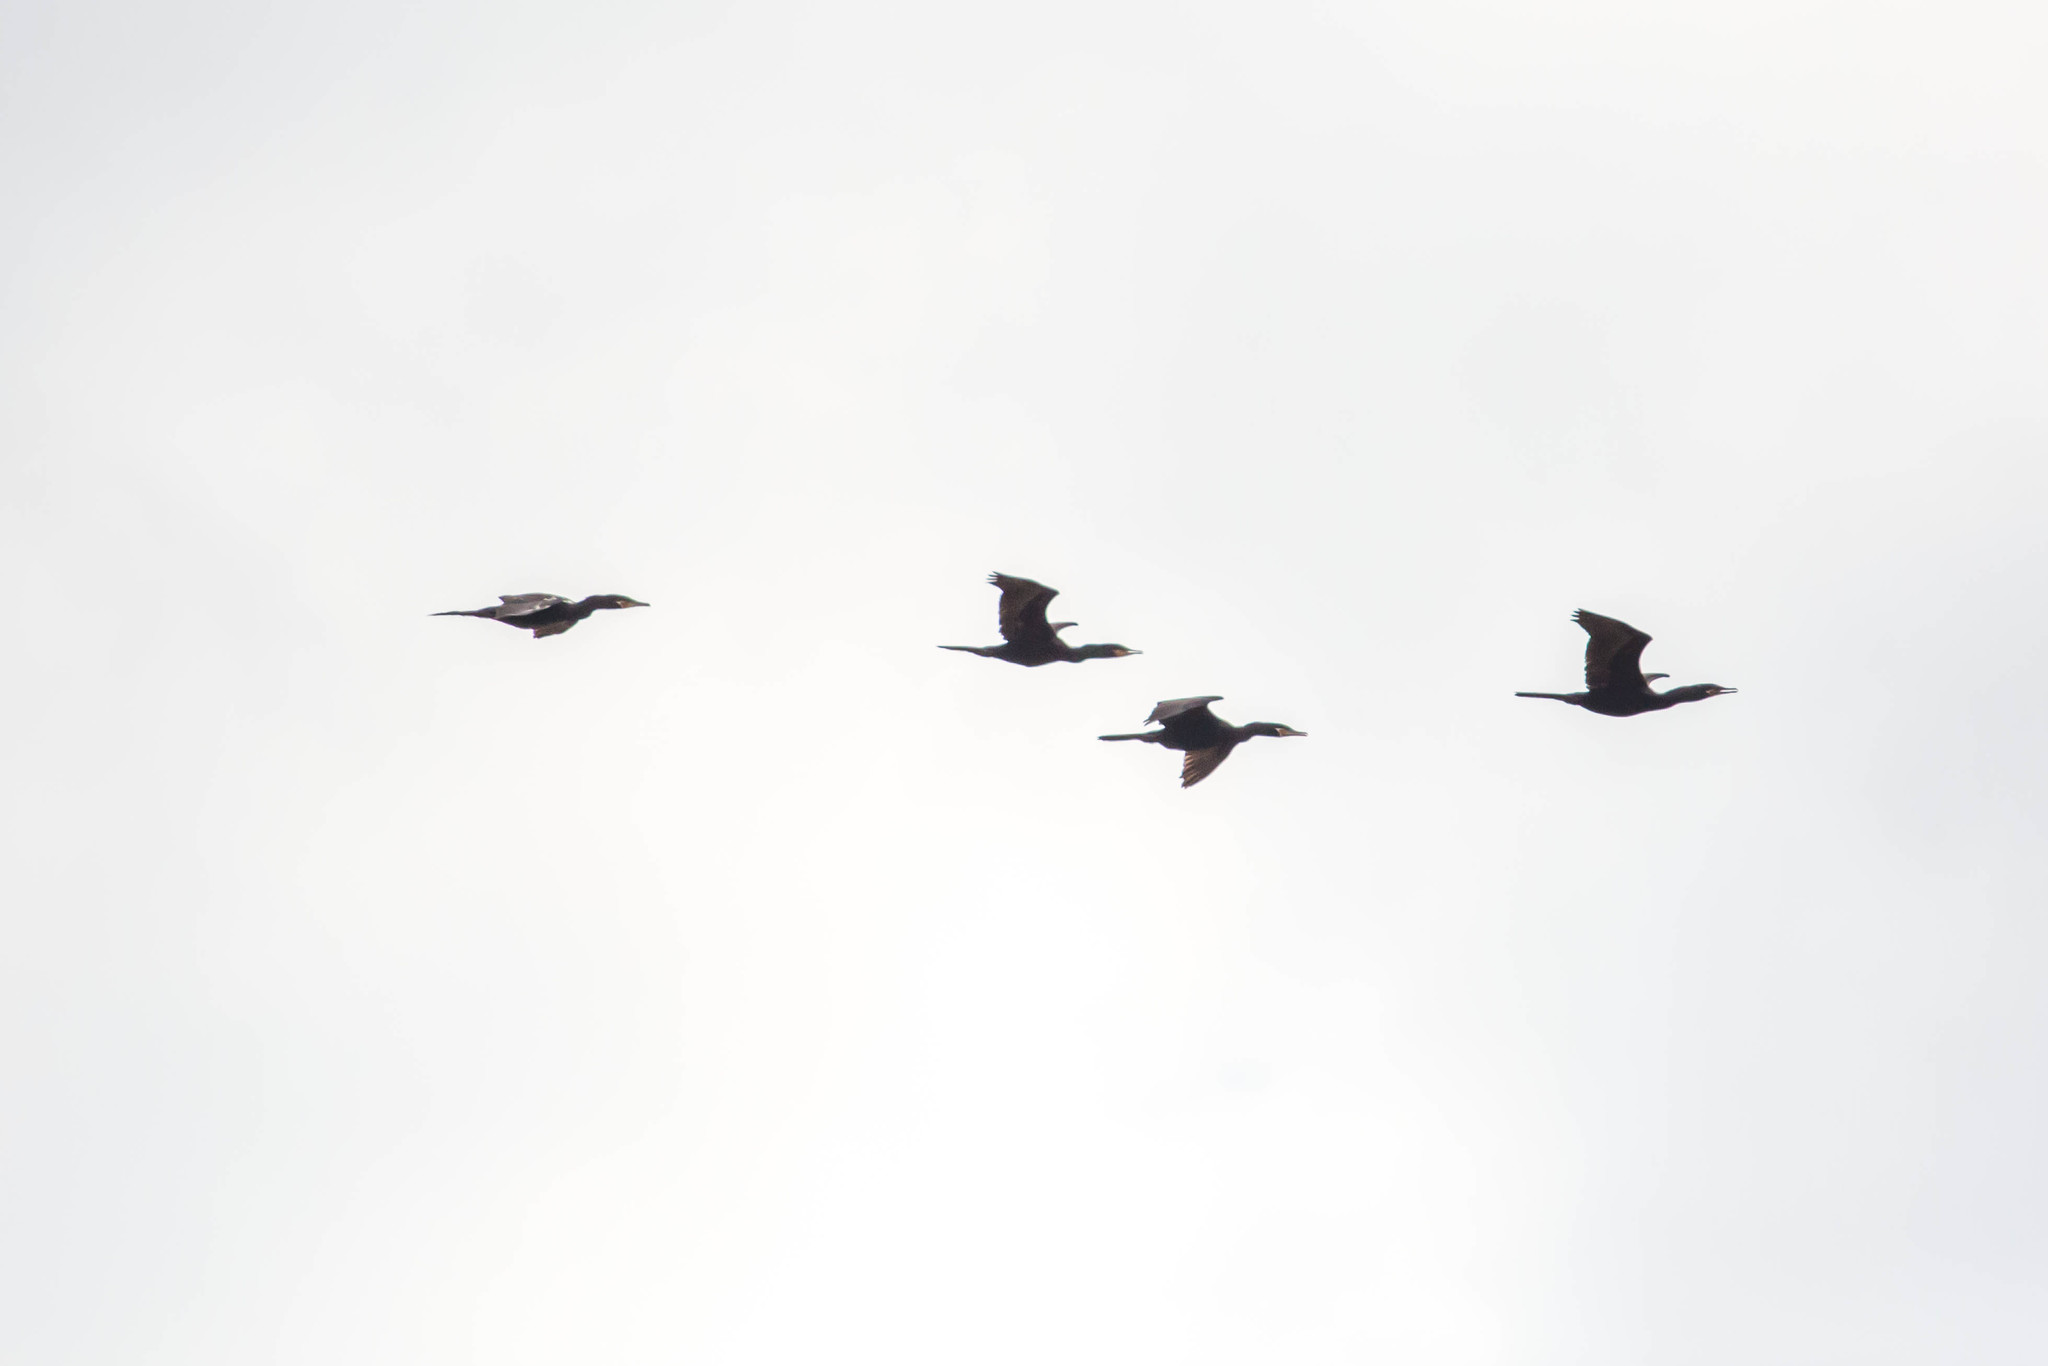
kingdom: Animalia
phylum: Chordata
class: Aves
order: Suliformes
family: Phalacrocoracidae
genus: Phalacrocorax
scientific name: Phalacrocorax brasilianus
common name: Neotropic cormorant
